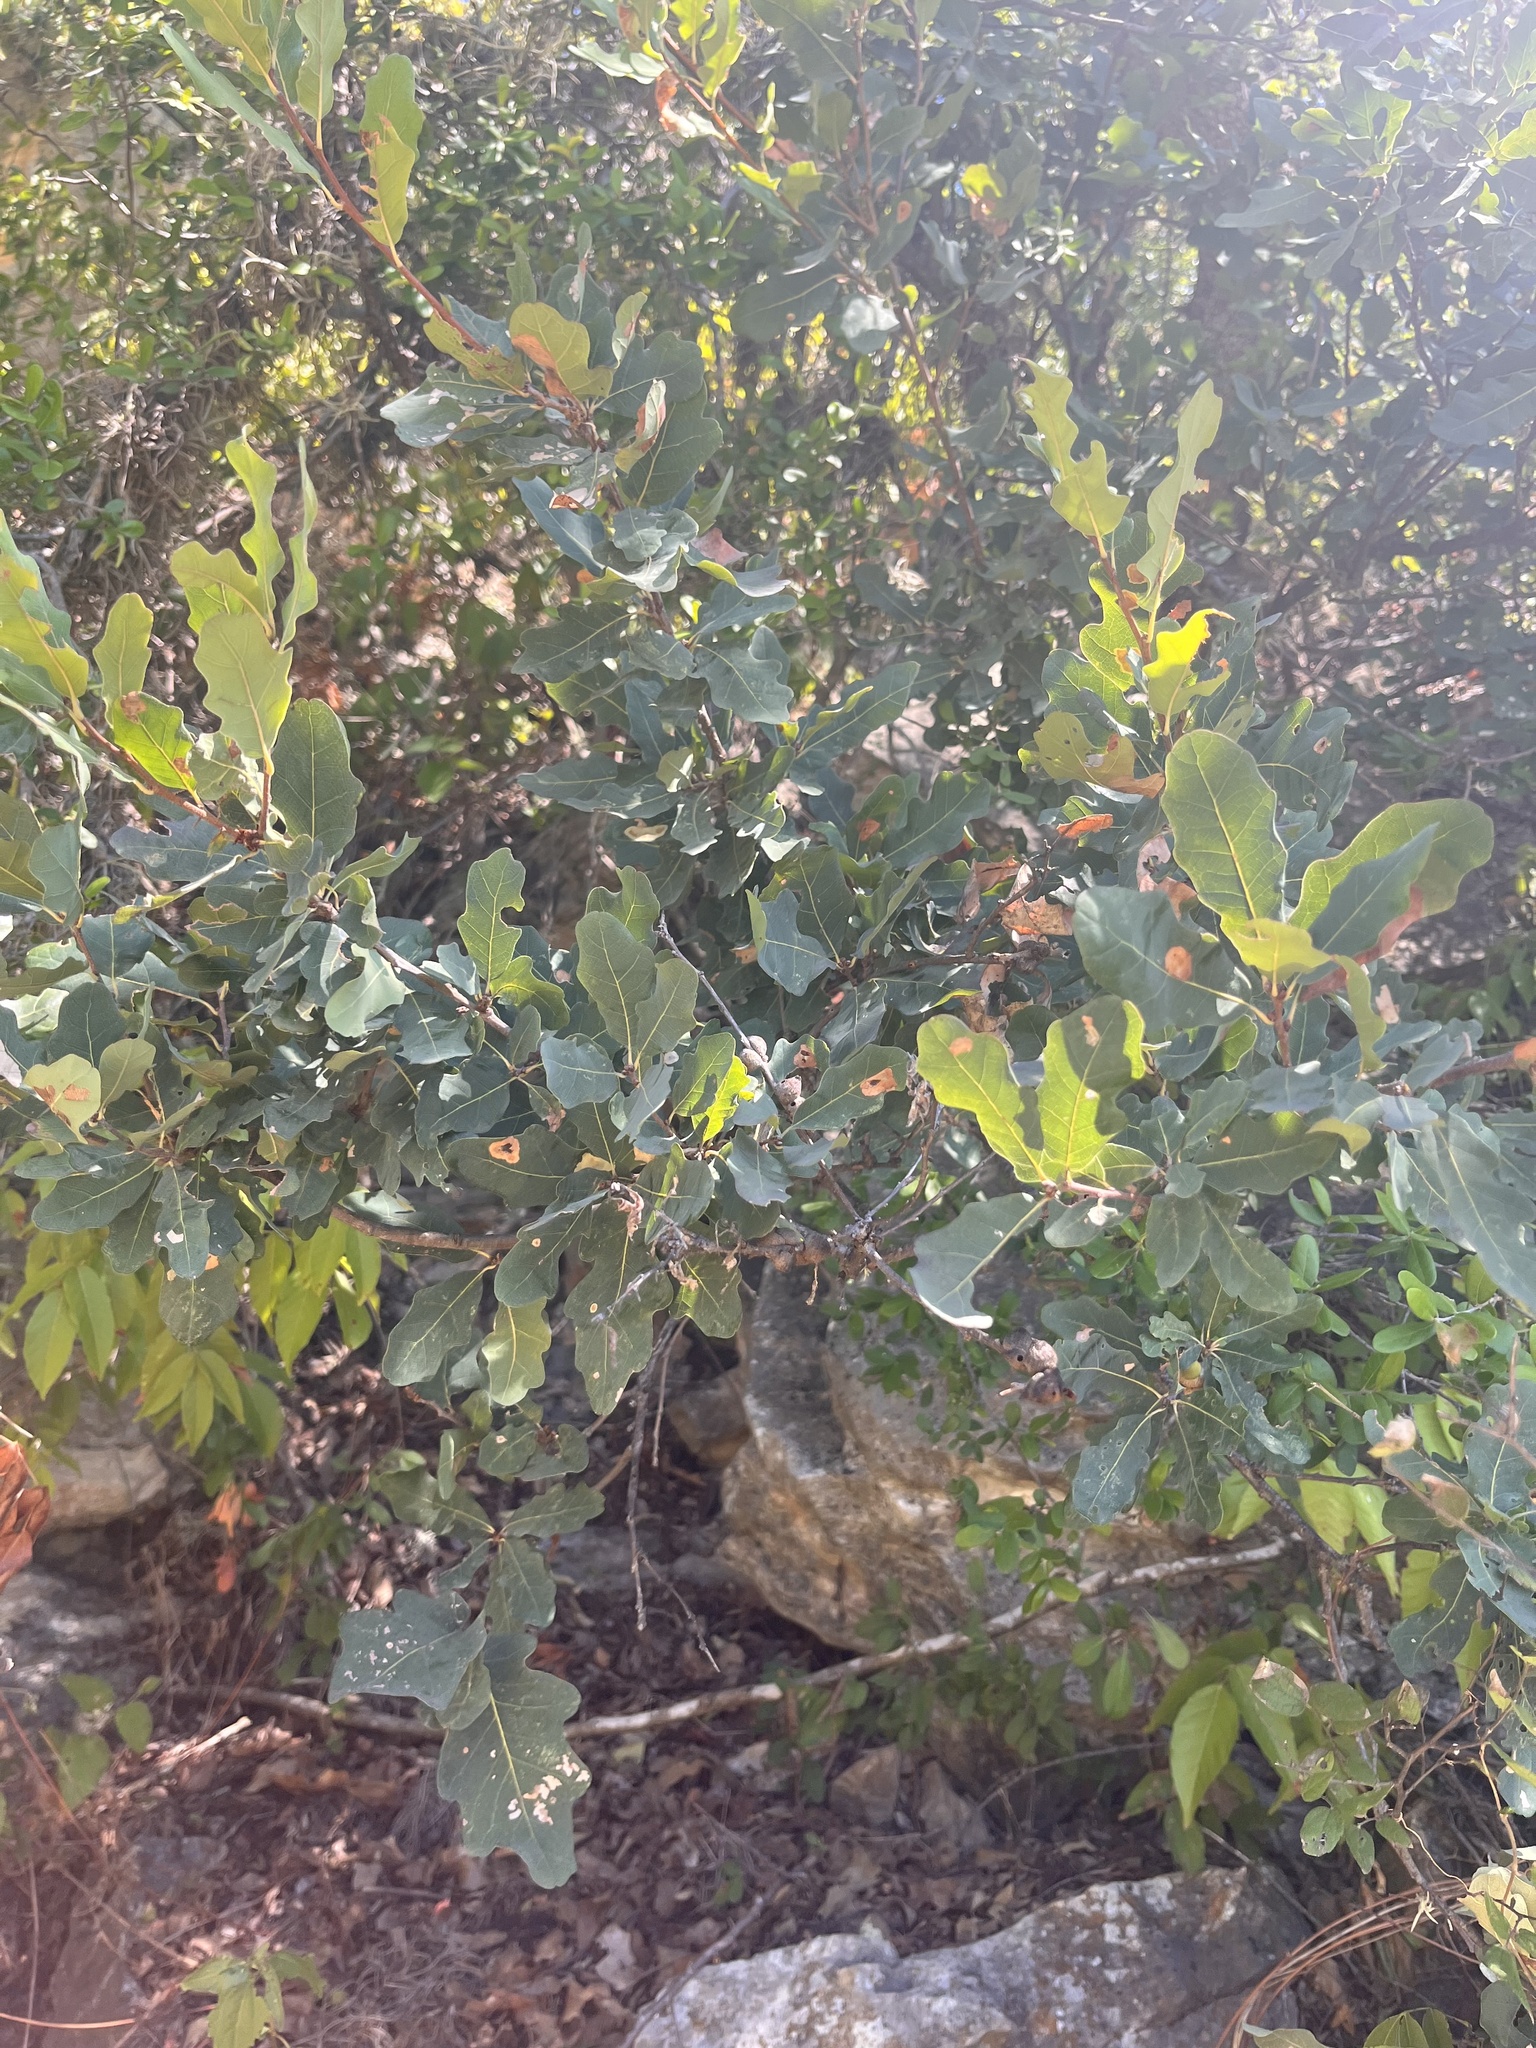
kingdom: Plantae
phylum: Tracheophyta
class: Magnoliopsida
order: Fagales
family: Fagaceae
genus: Quercus
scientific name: Quercus laceyi
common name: Lacey oak
